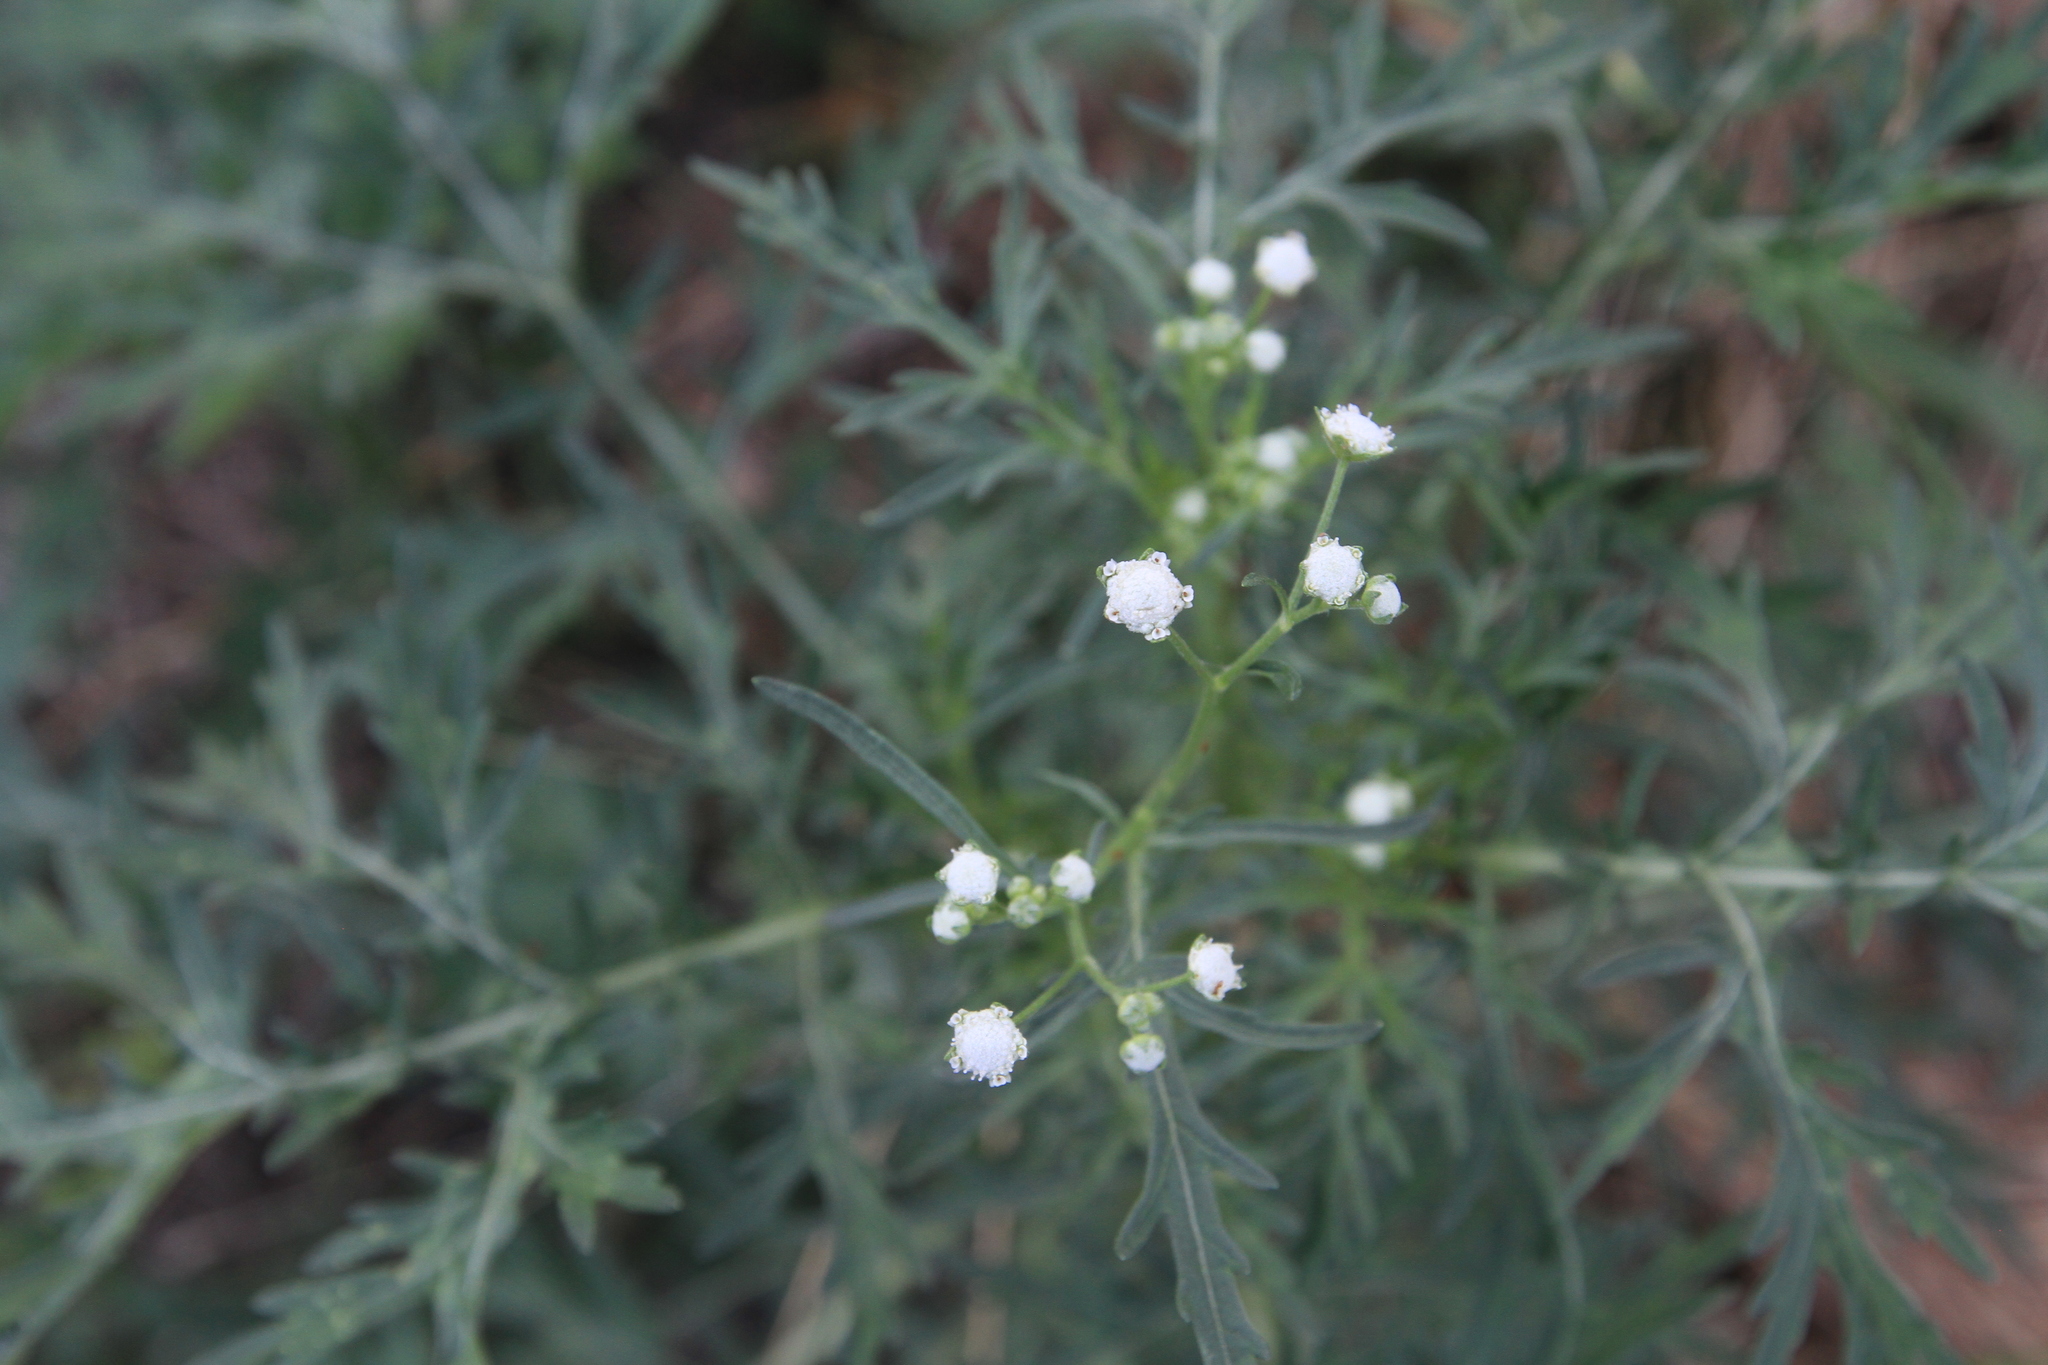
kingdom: Plantae
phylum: Tracheophyta
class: Magnoliopsida
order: Asterales
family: Asteraceae
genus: Parthenium
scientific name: Parthenium hysterophorus
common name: Santa maria feverfew
